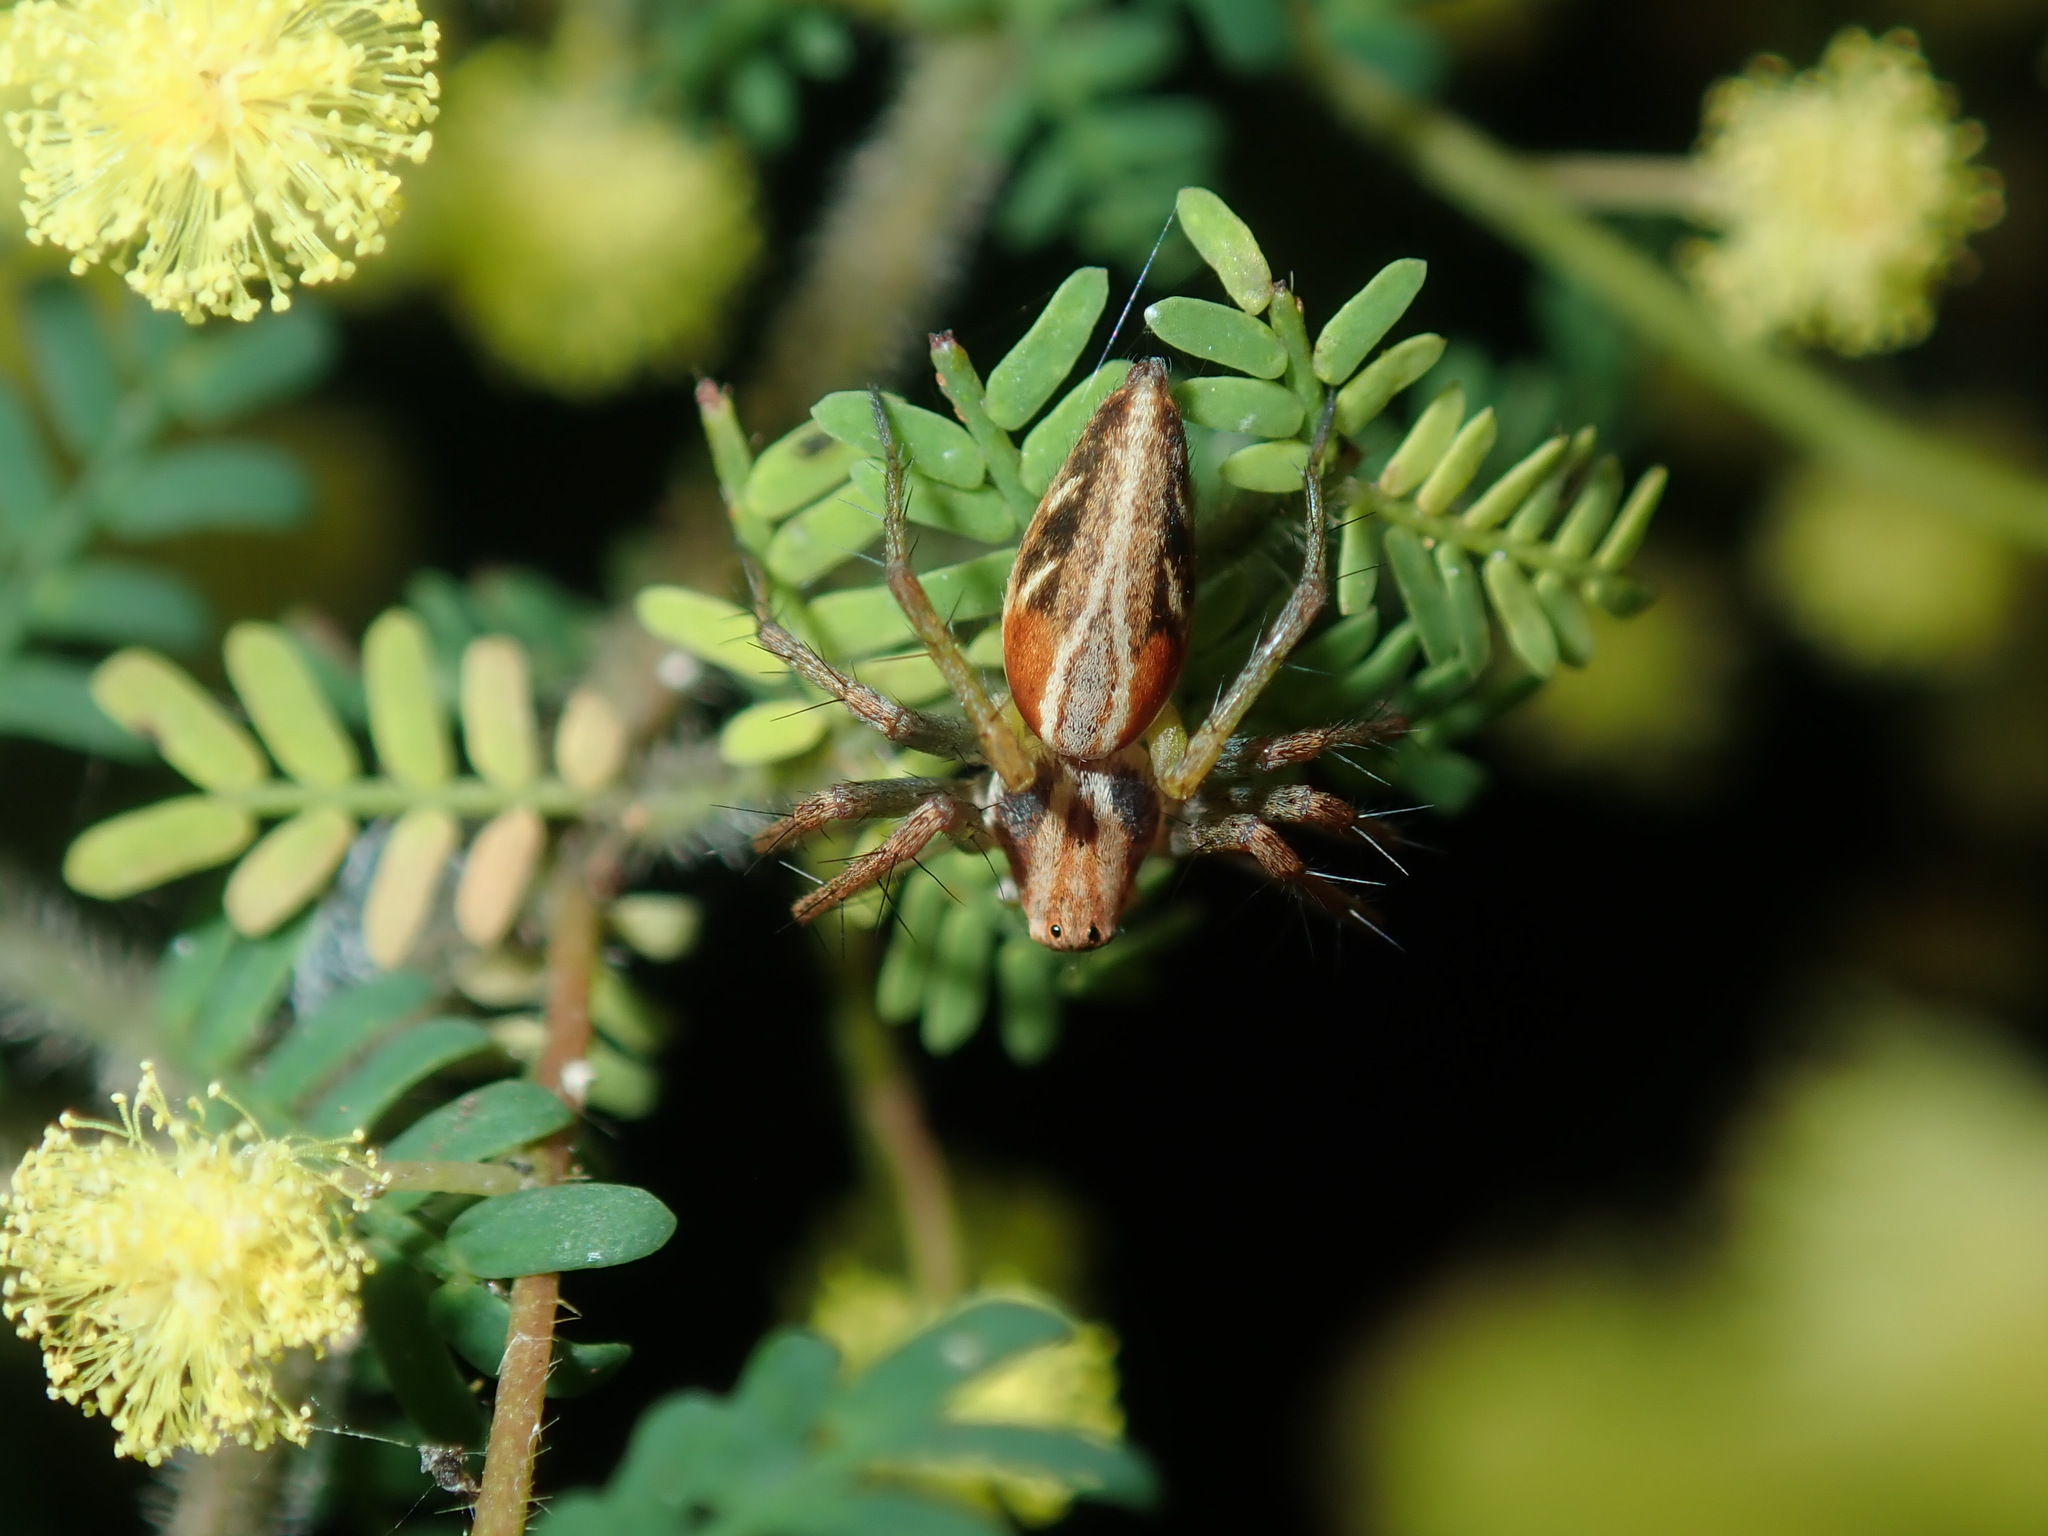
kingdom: Animalia
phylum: Arthropoda
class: Arachnida
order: Araneae
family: Oxyopidae
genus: Oxyopes
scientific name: Oxyopes amoenus
